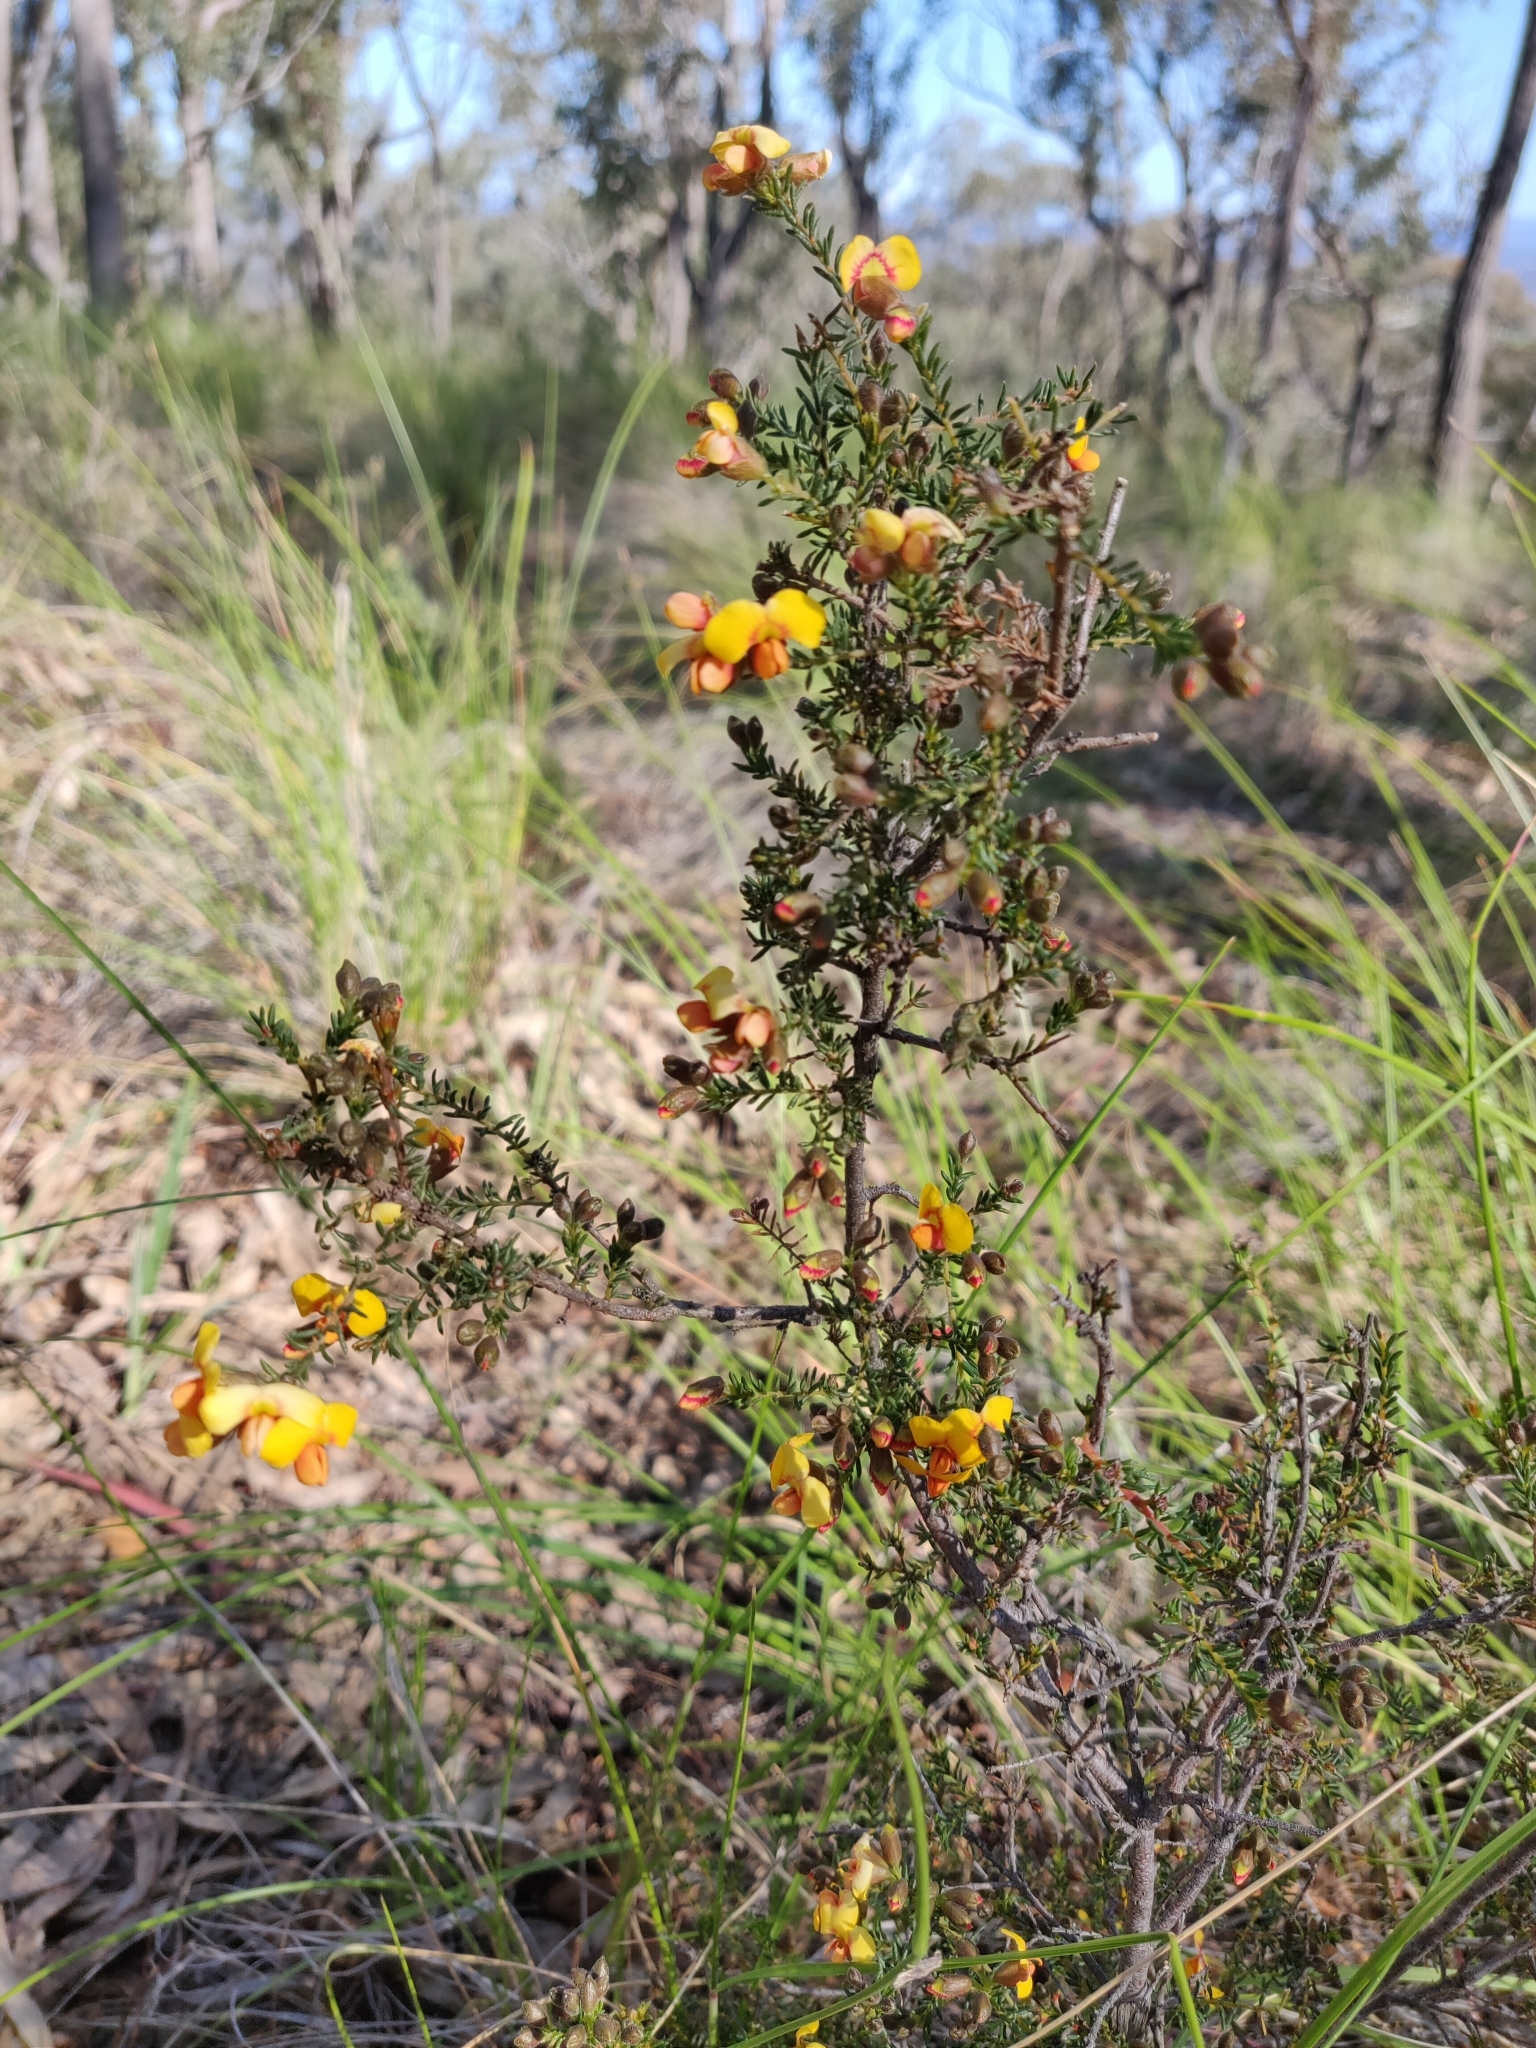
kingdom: Plantae
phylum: Tracheophyta
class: Magnoliopsida
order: Fabales
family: Fabaceae
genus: Dillwynia
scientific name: Dillwynia phylicoides
